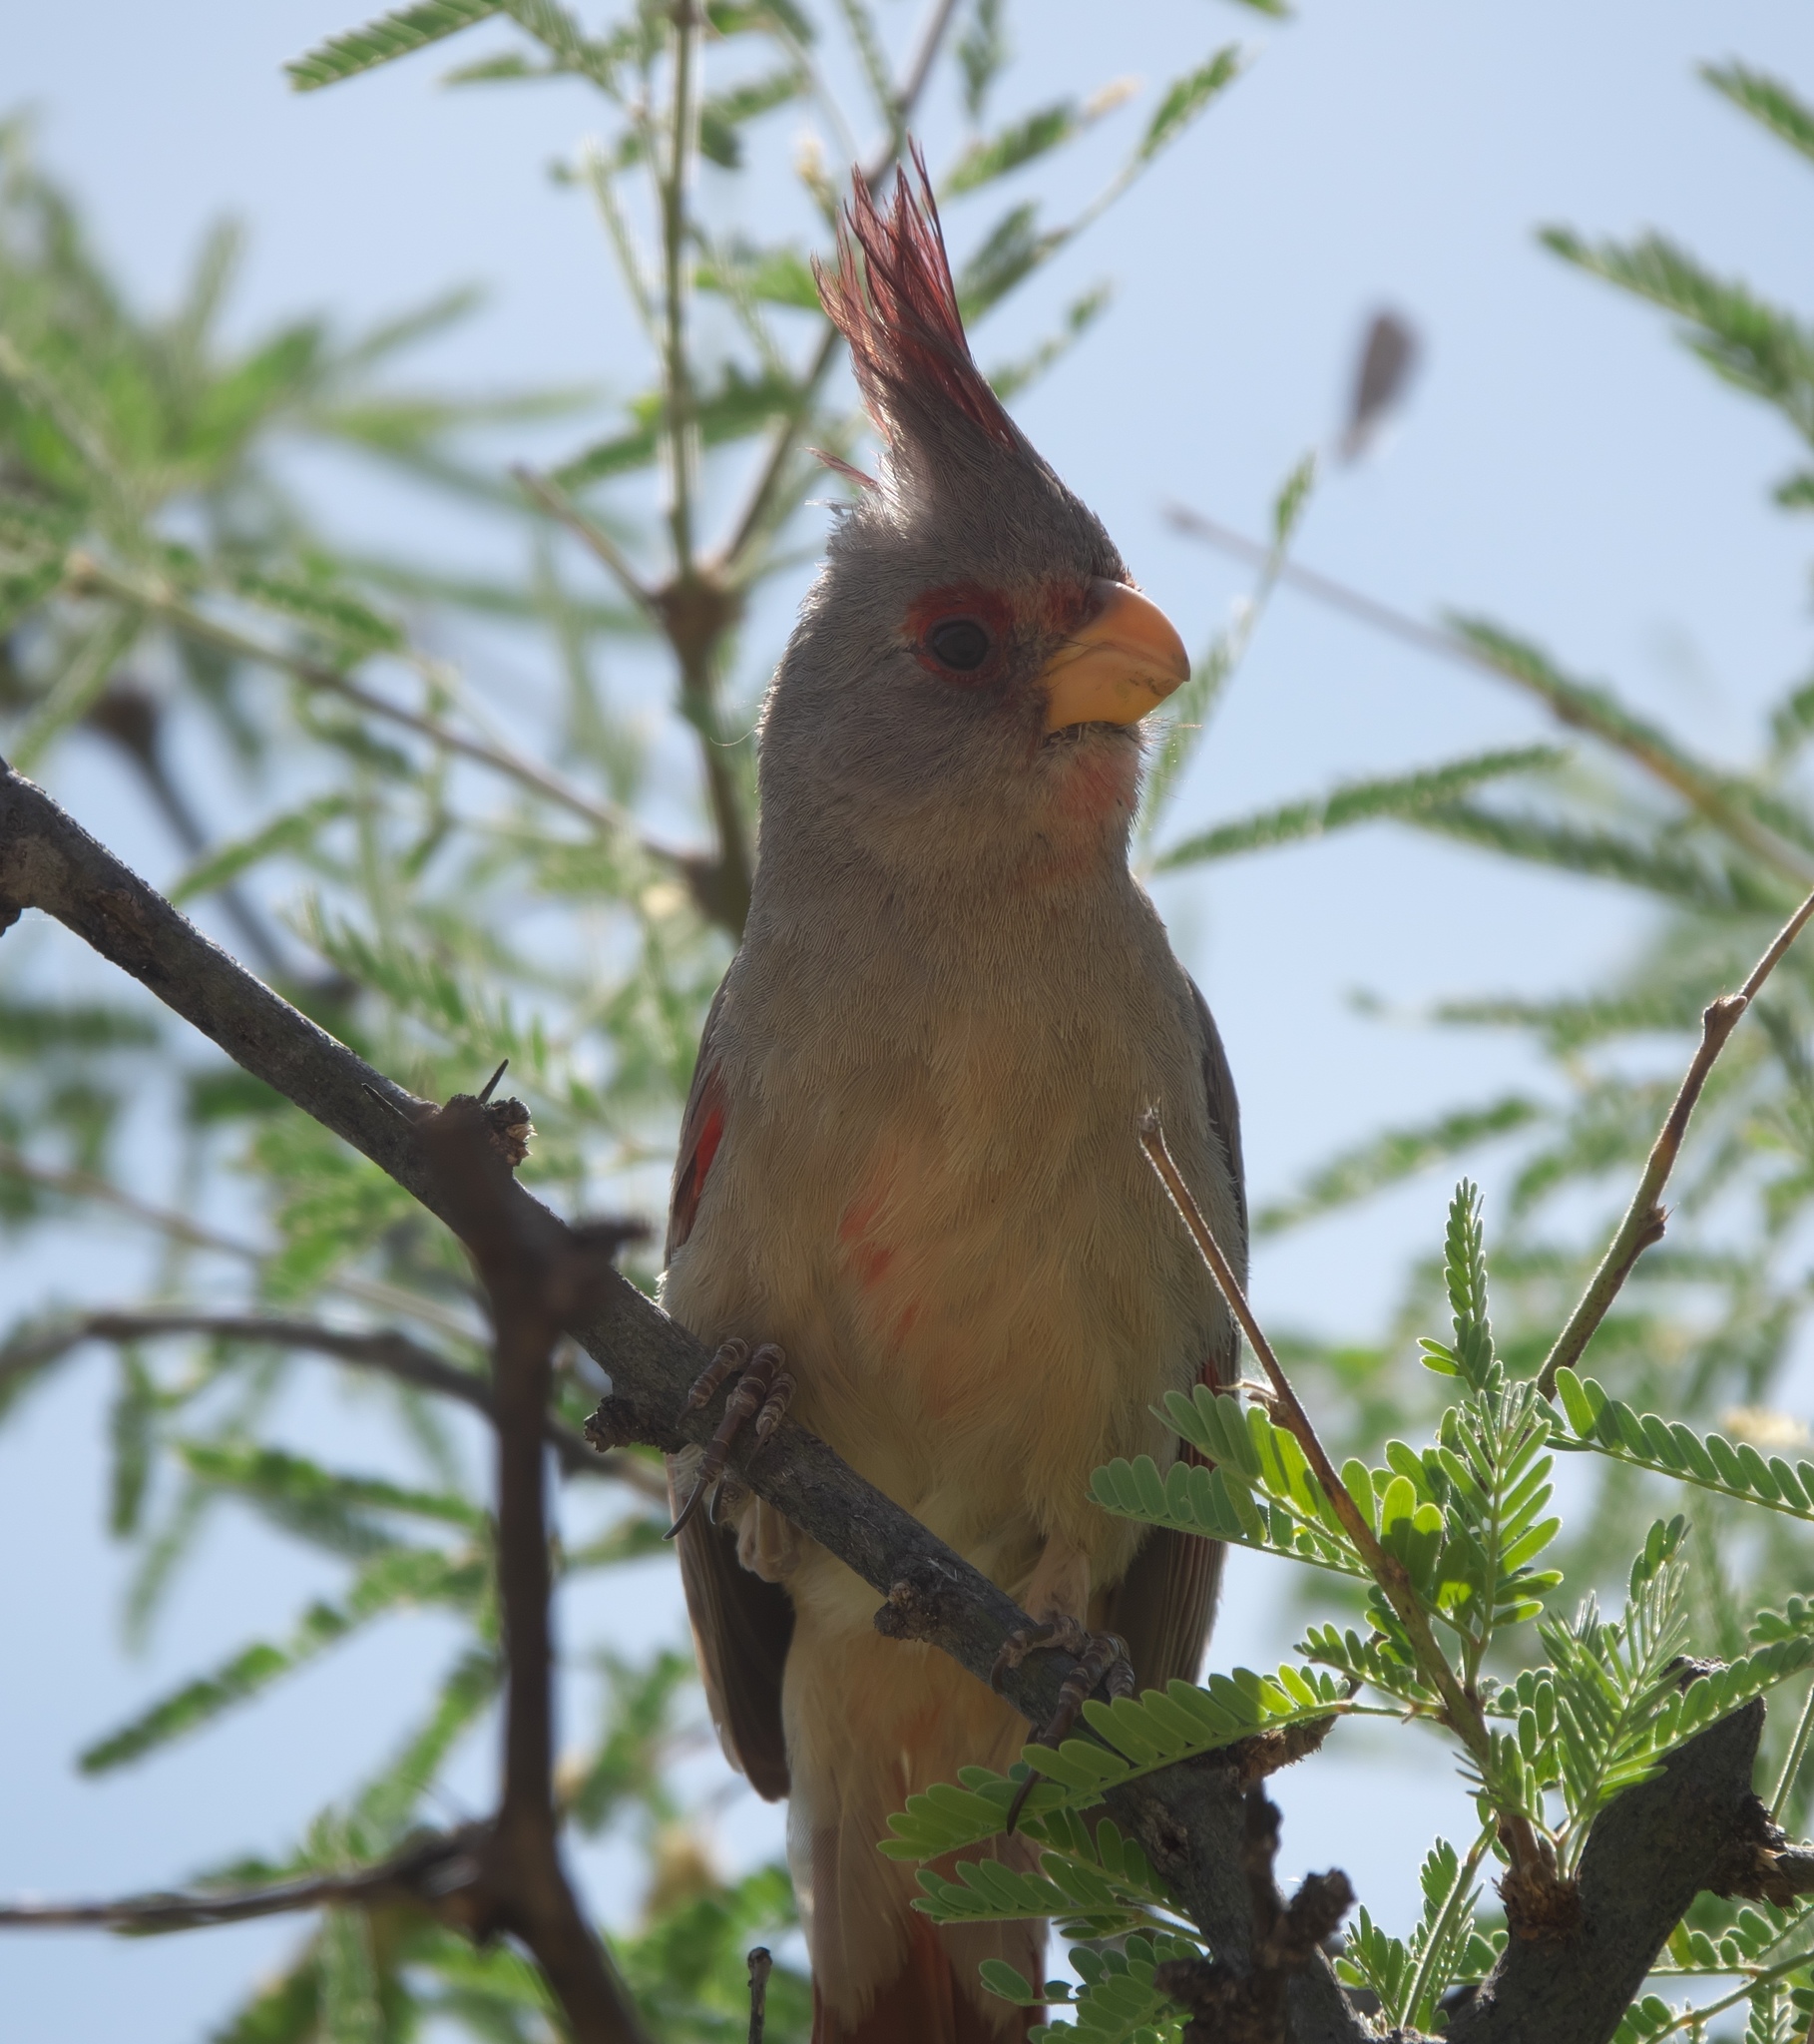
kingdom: Animalia
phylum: Chordata
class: Aves
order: Passeriformes
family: Cardinalidae
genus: Cardinalis
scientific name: Cardinalis sinuatus
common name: Pyrrhuloxia
